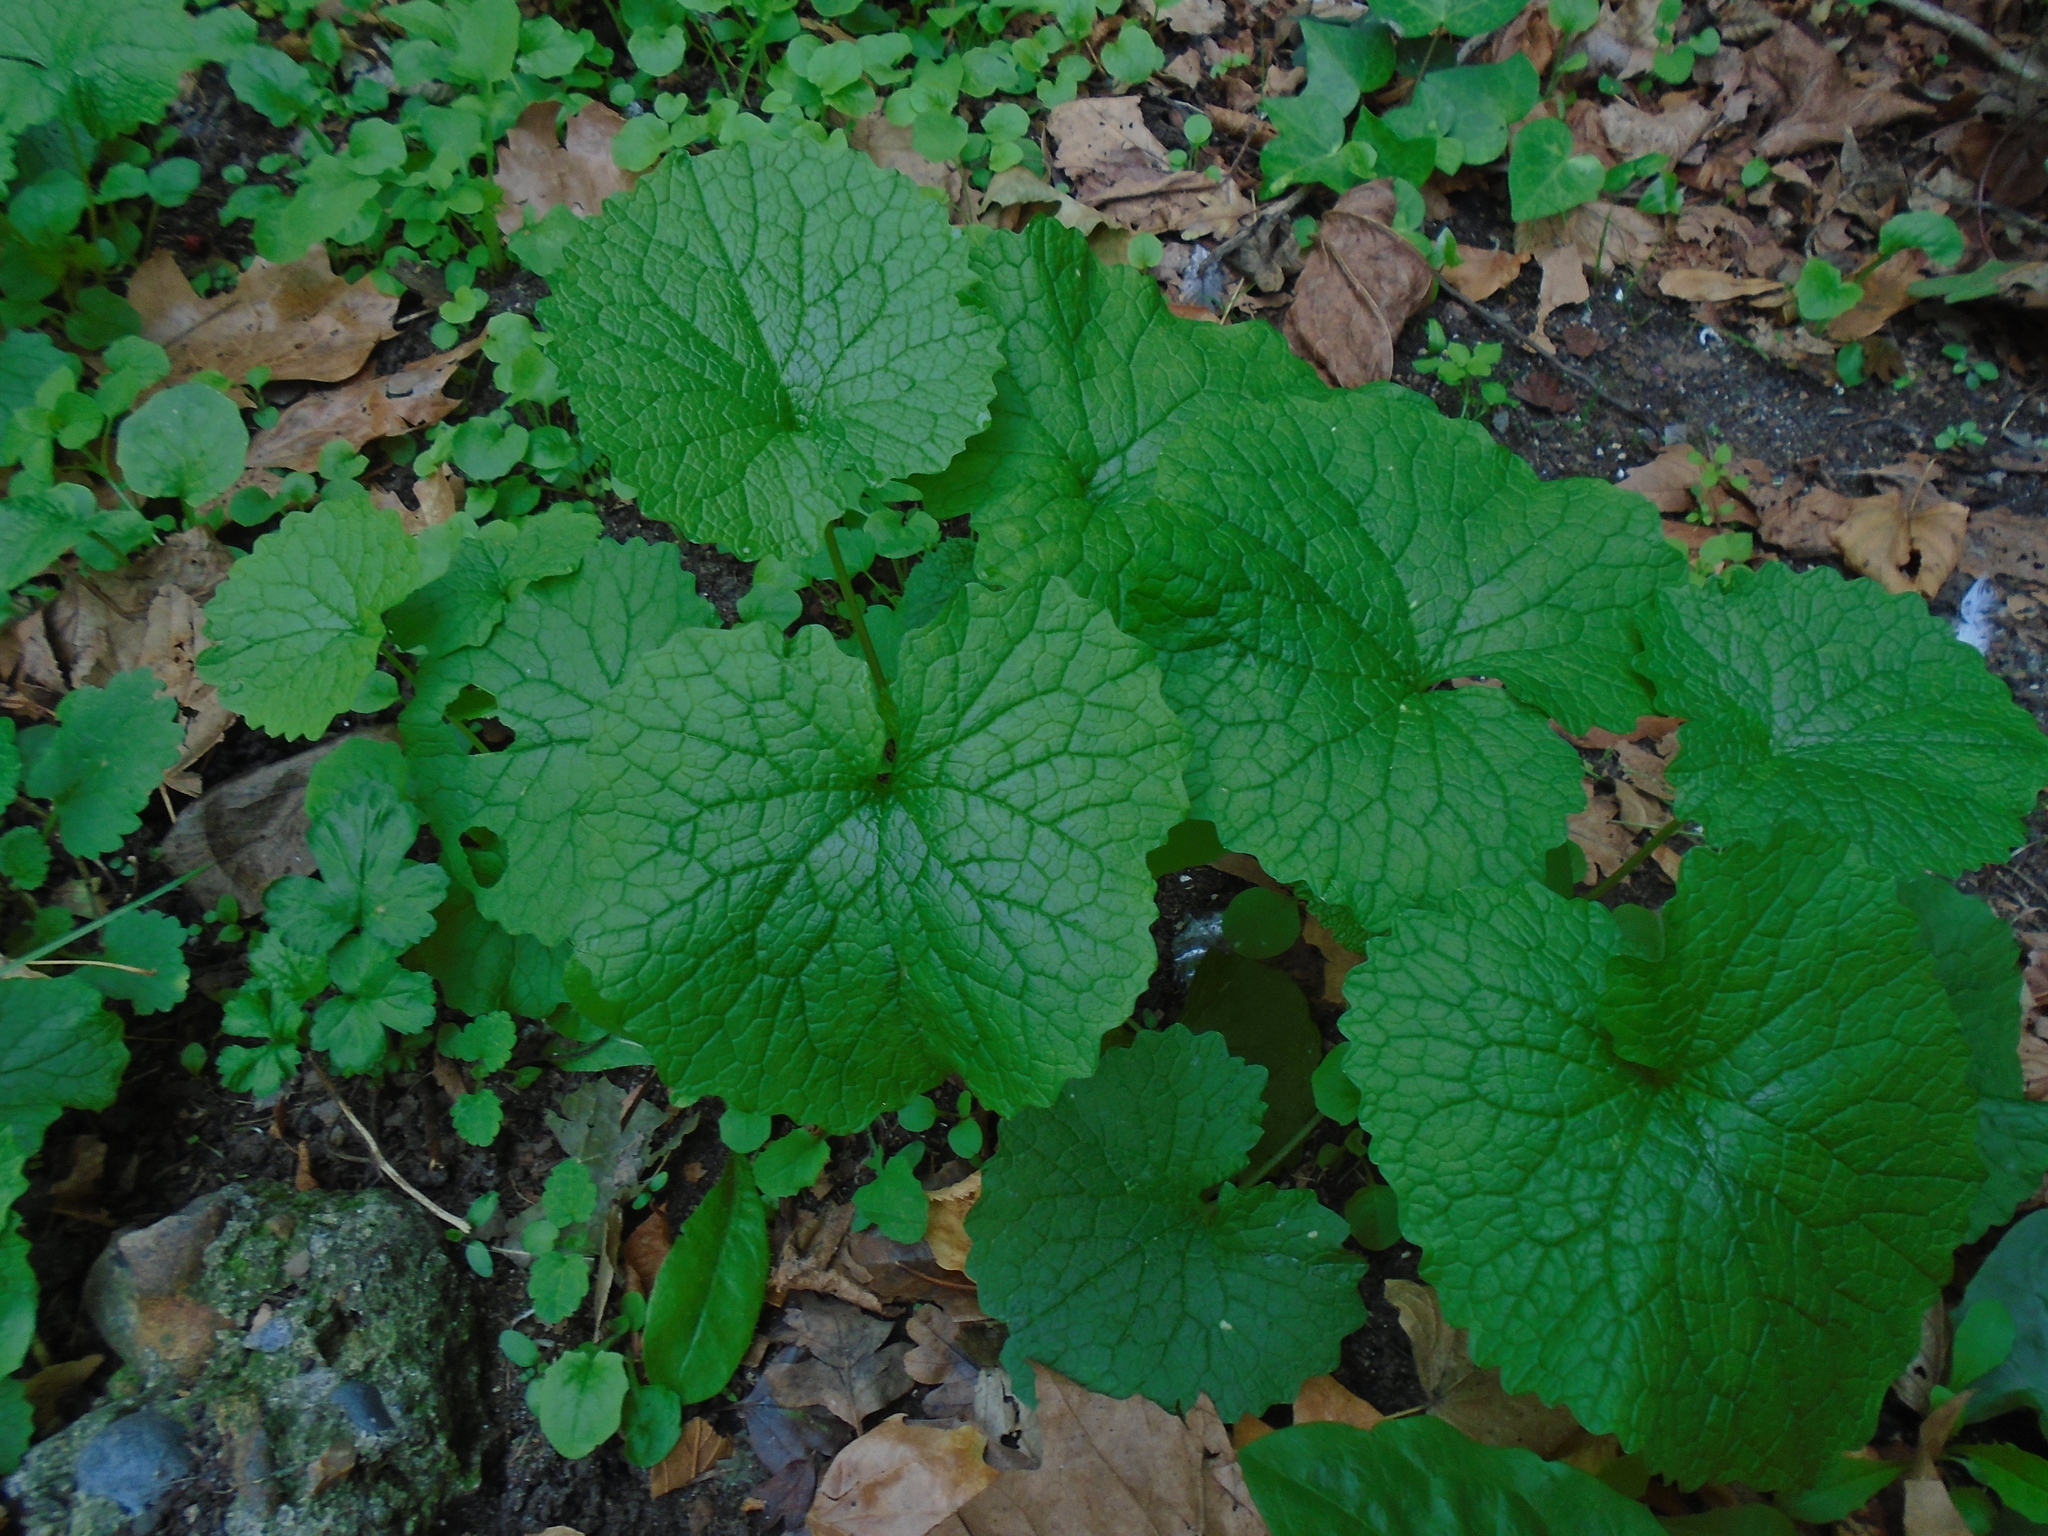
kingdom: Plantae
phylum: Tracheophyta
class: Magnoliopsida
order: Brassicales
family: Brassicaceae
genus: Alliaria
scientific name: Alliaria petiolata
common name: Garlic mustard
